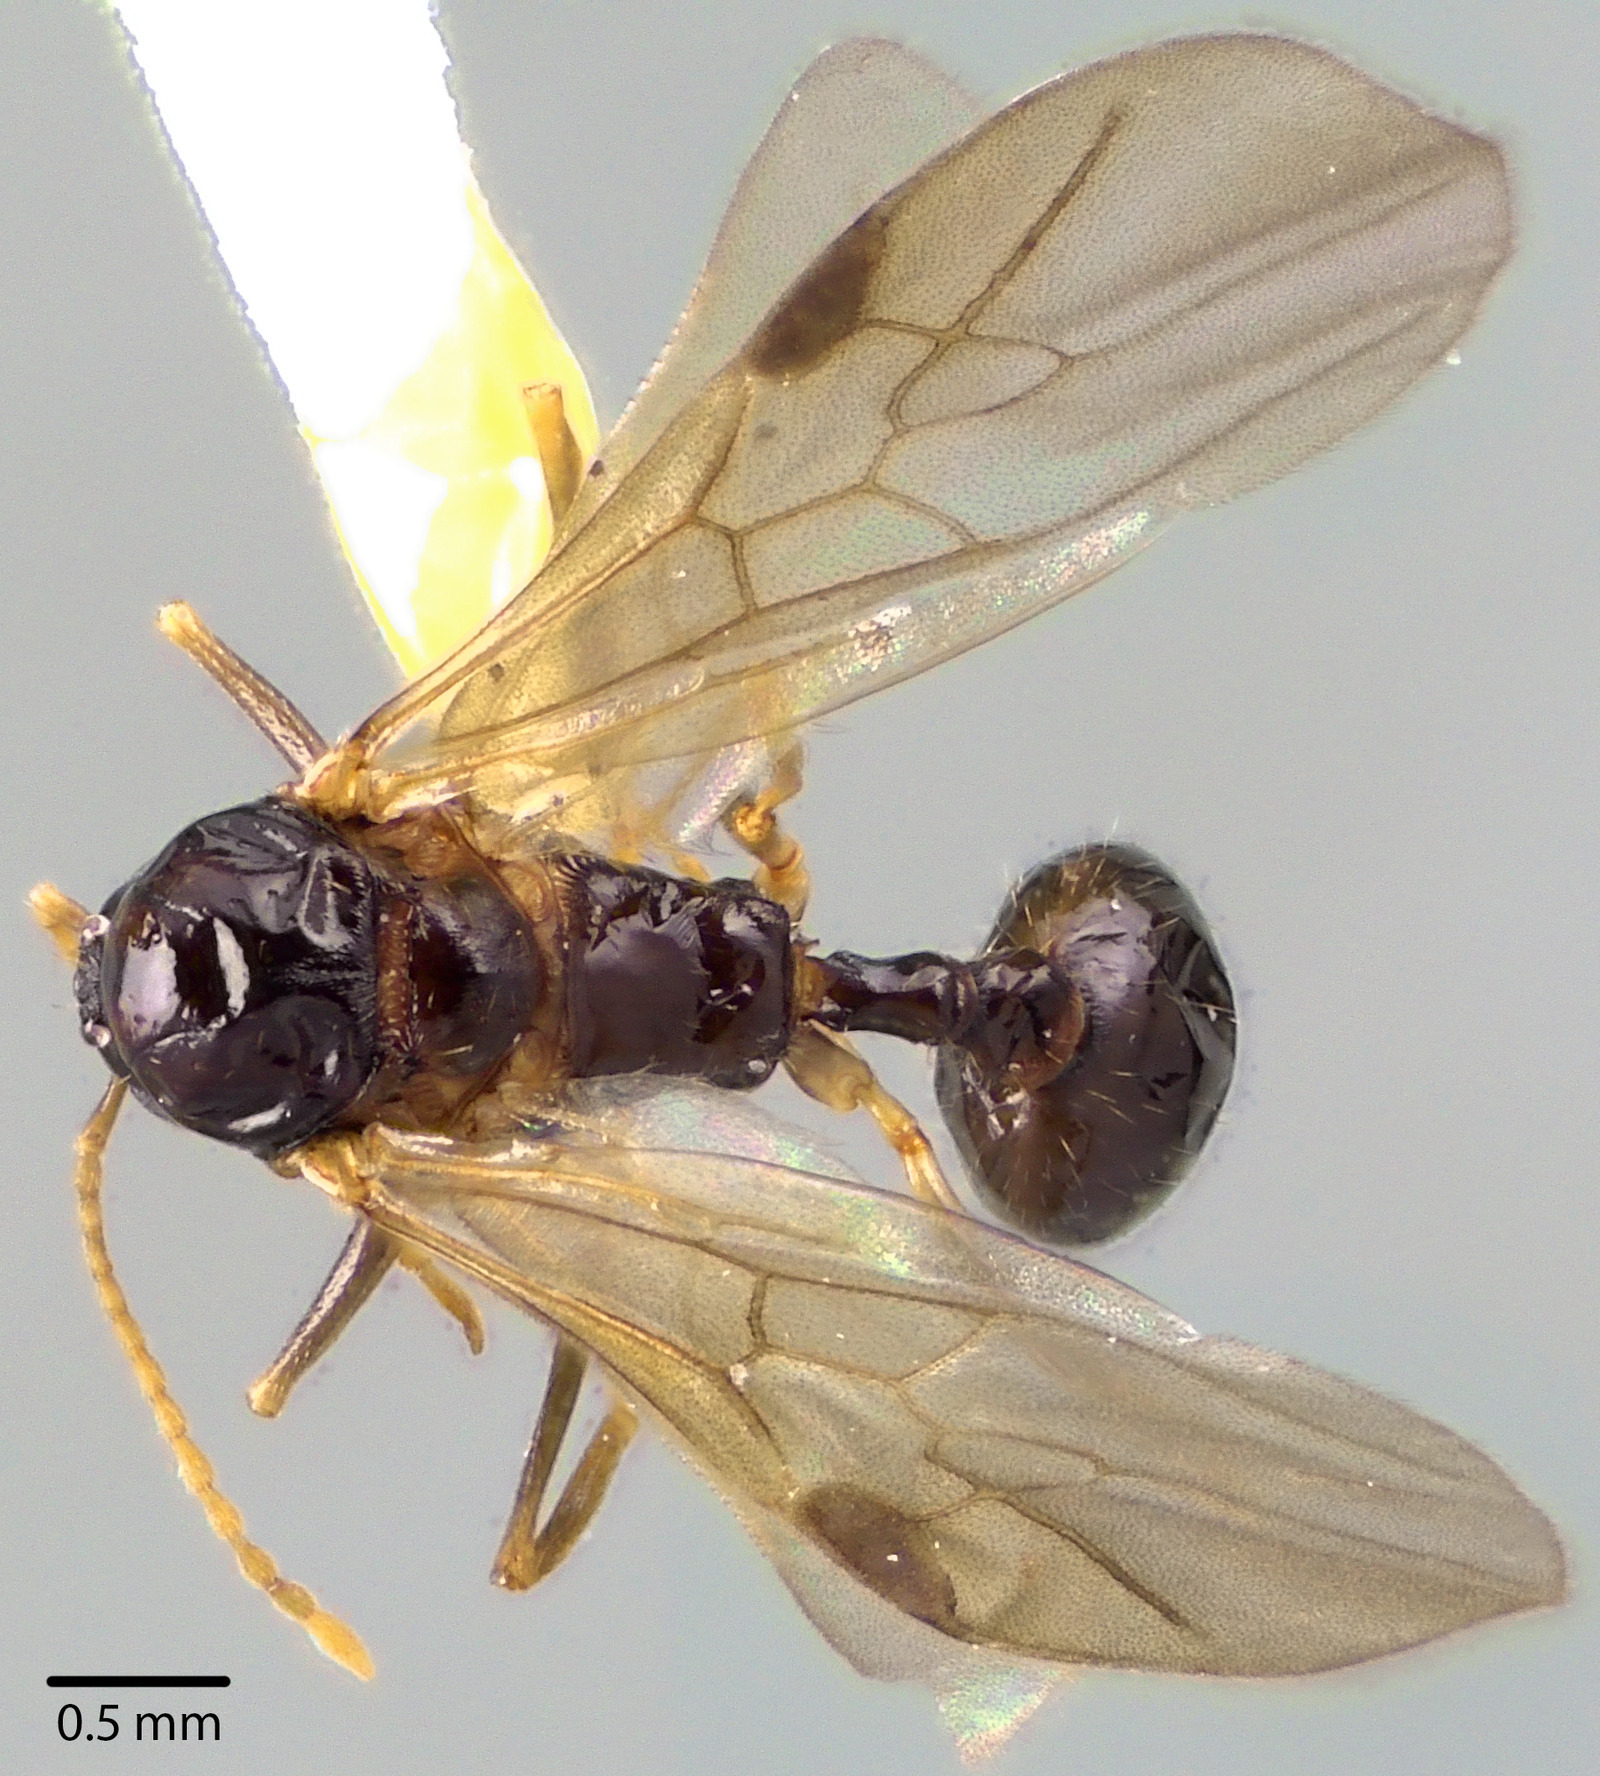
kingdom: Animalia
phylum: Arthropoda
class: Insecta
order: Hymenoptera
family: Formicidae
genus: Aphaenogaster
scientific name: Aphaenogaster picea
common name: Pitch-black collared ant
